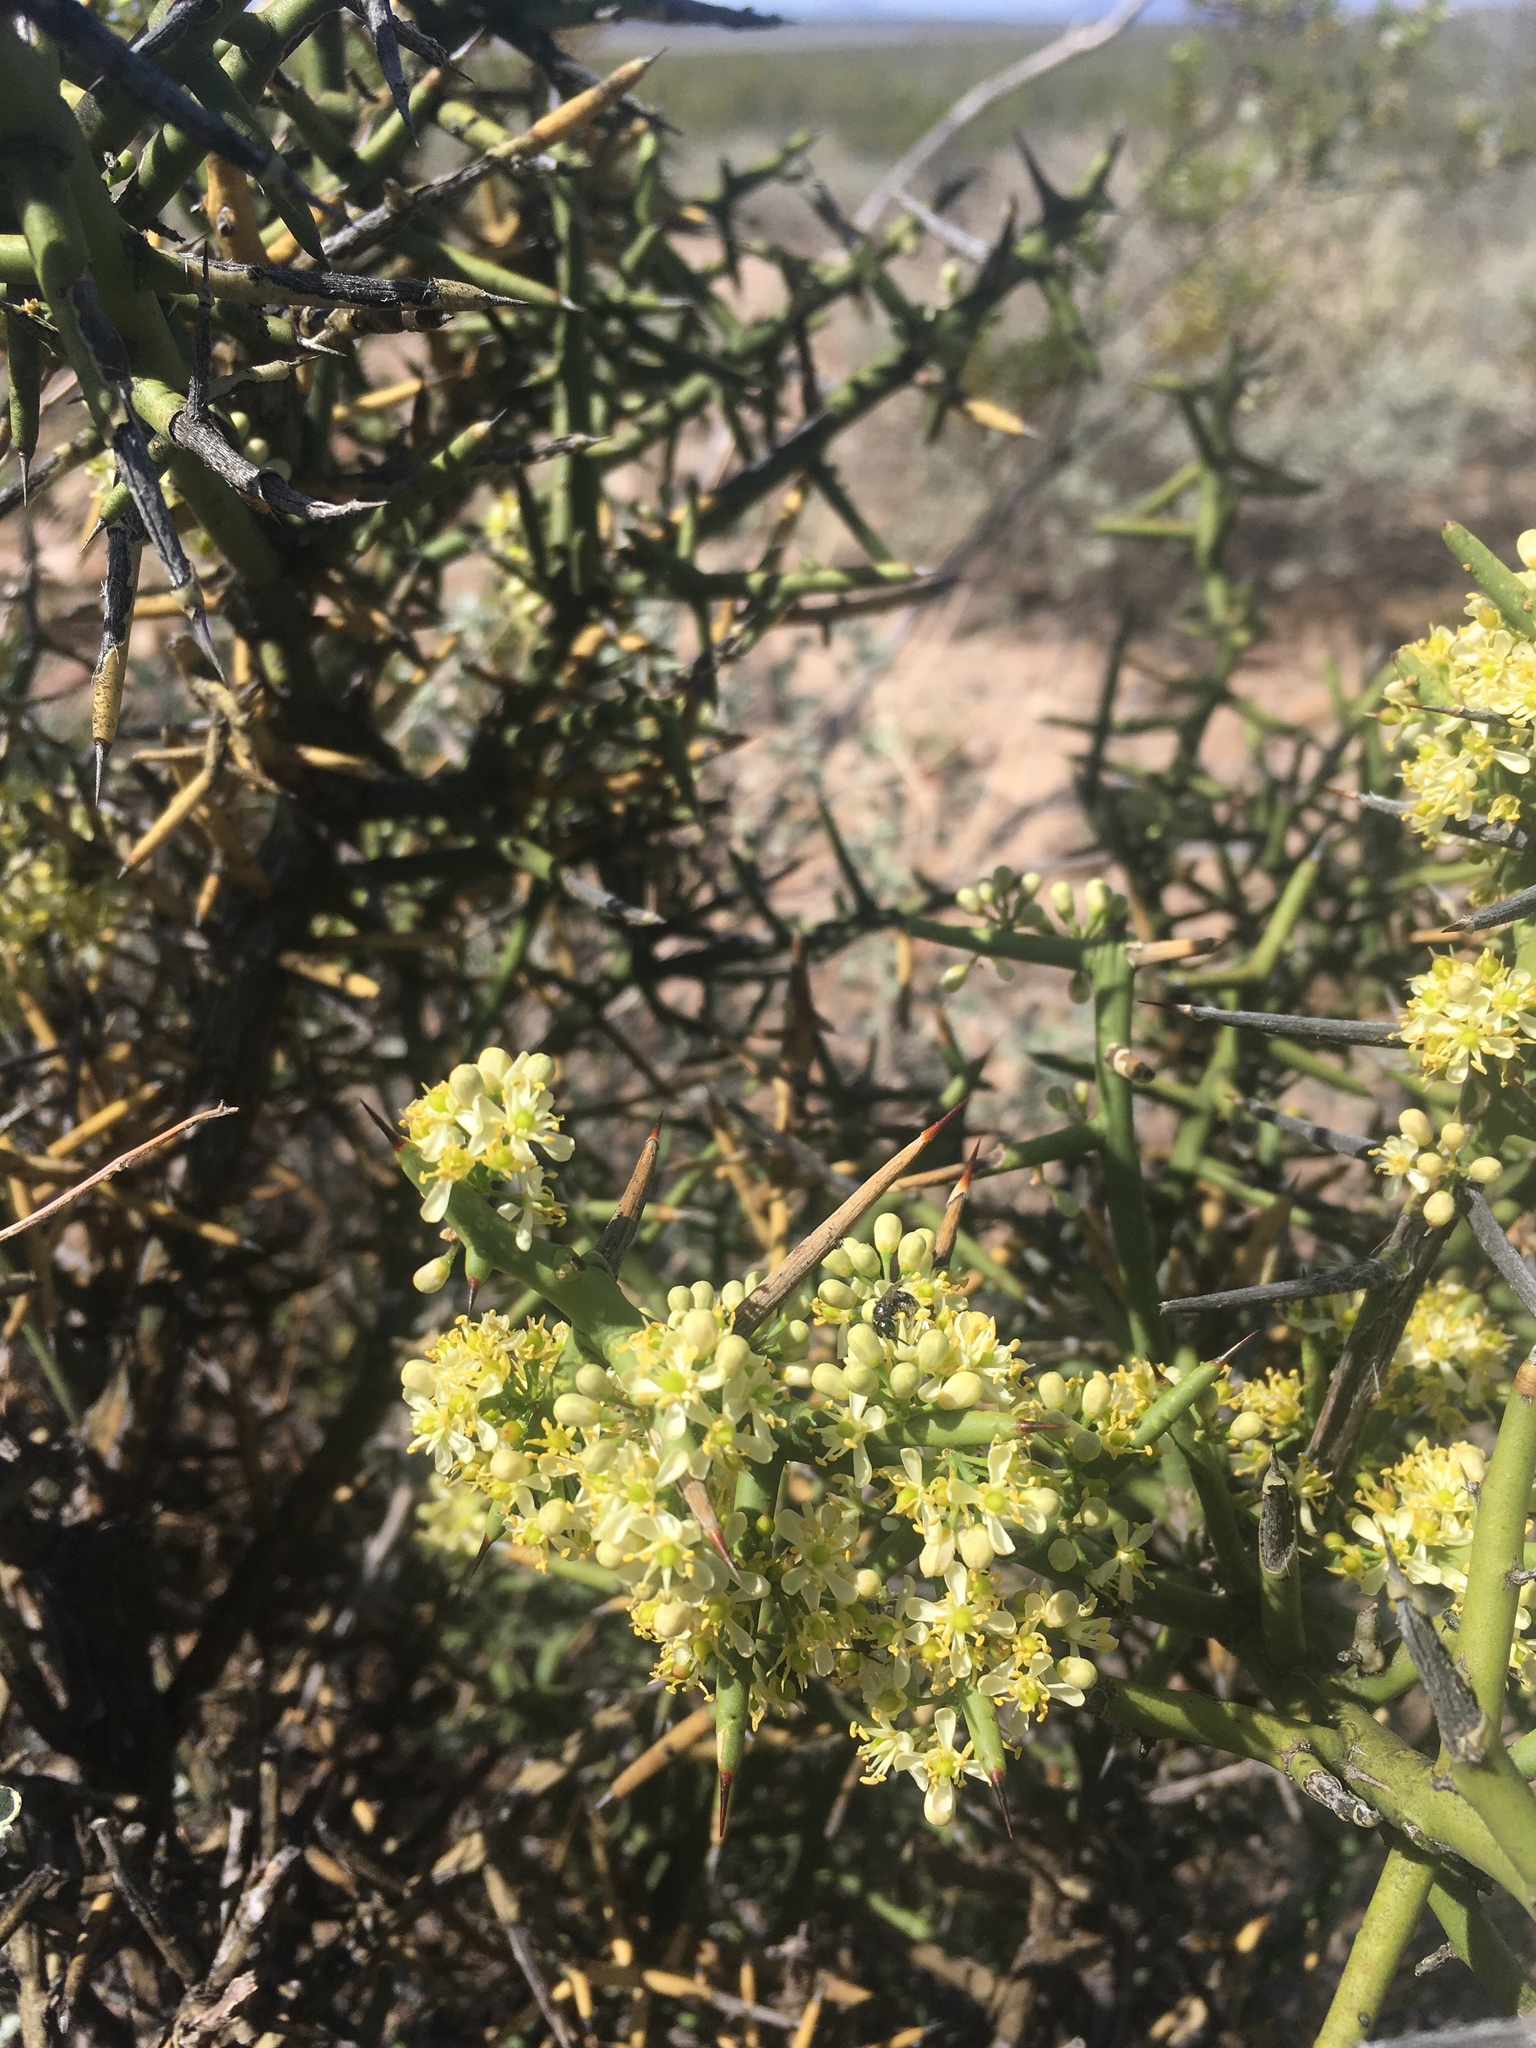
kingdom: Plantae
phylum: Tracheophyta
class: Magnoliopsida
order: Brassicales
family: Koeberliniaceae
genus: Koeberlinia
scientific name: Koeberlinia spinosa
